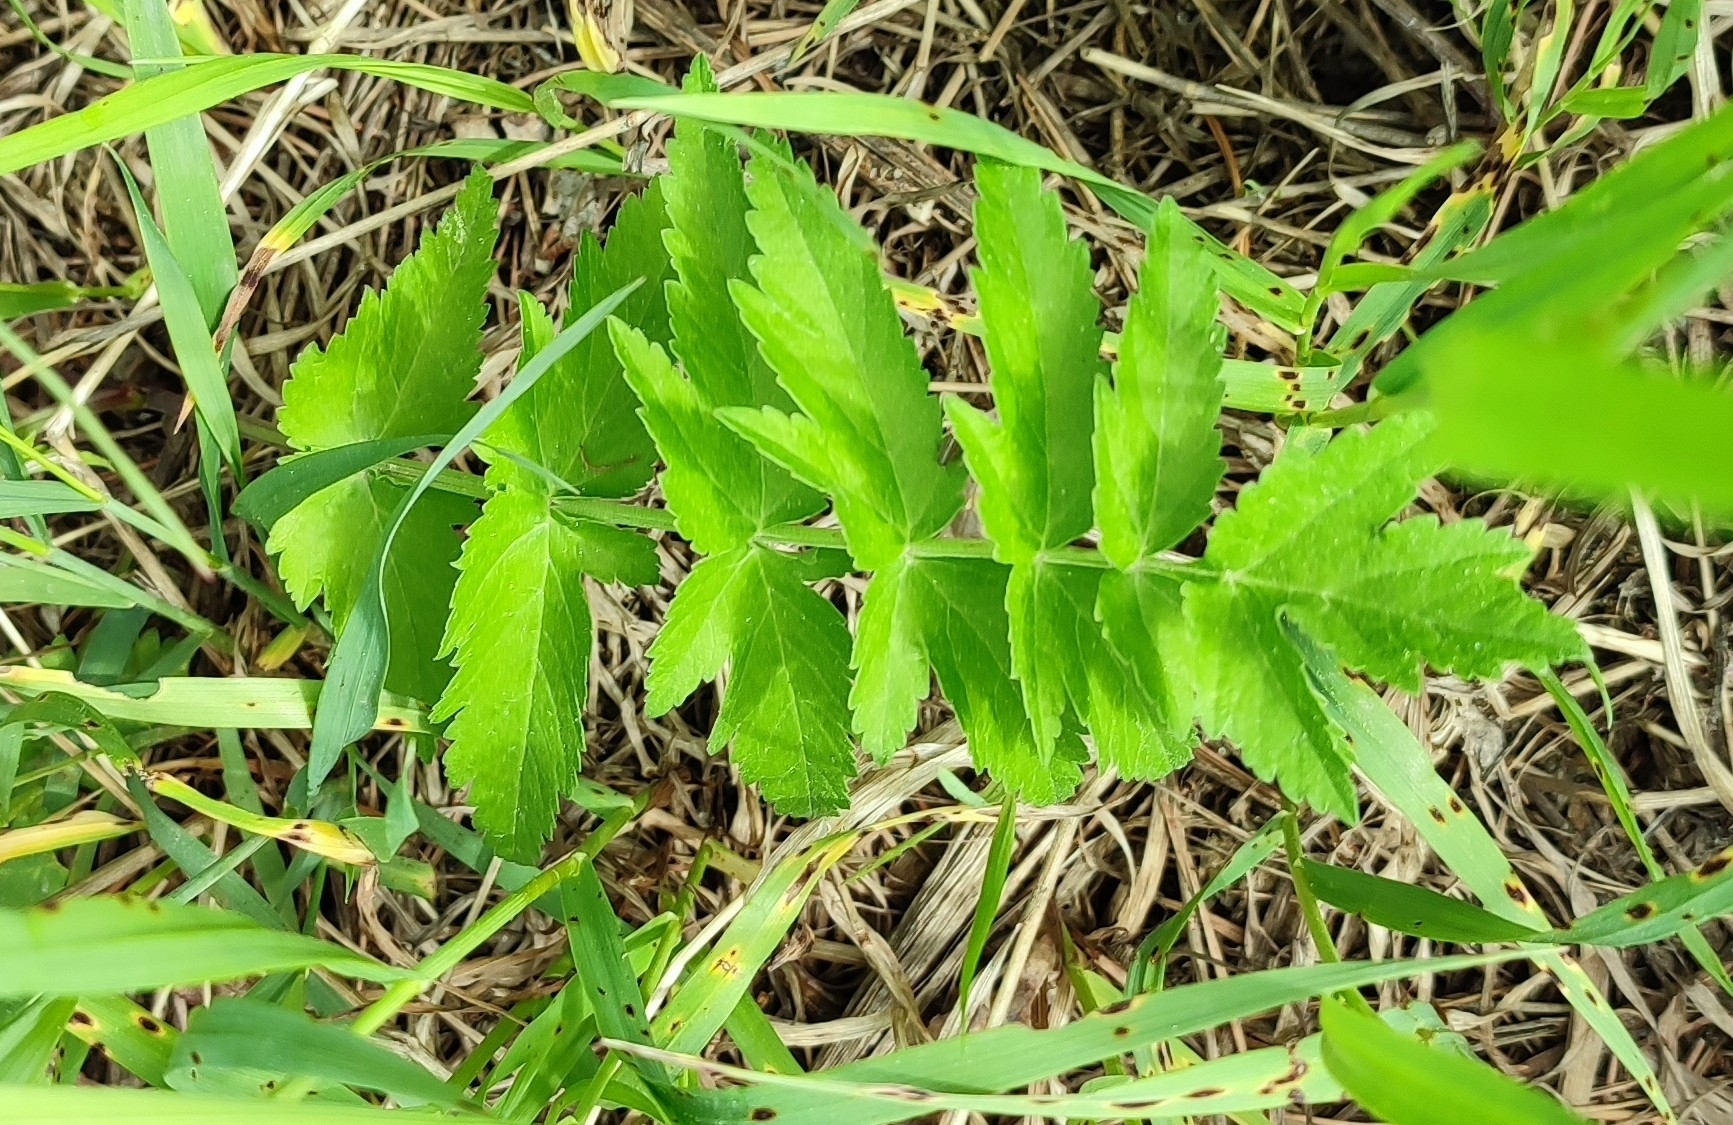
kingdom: Plantae
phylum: Tracheophyta
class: Magnoliopsida
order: Apiales
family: Apiaceae
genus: Pastinaca
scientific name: Pastinaca sativa
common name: Wild parsnip
